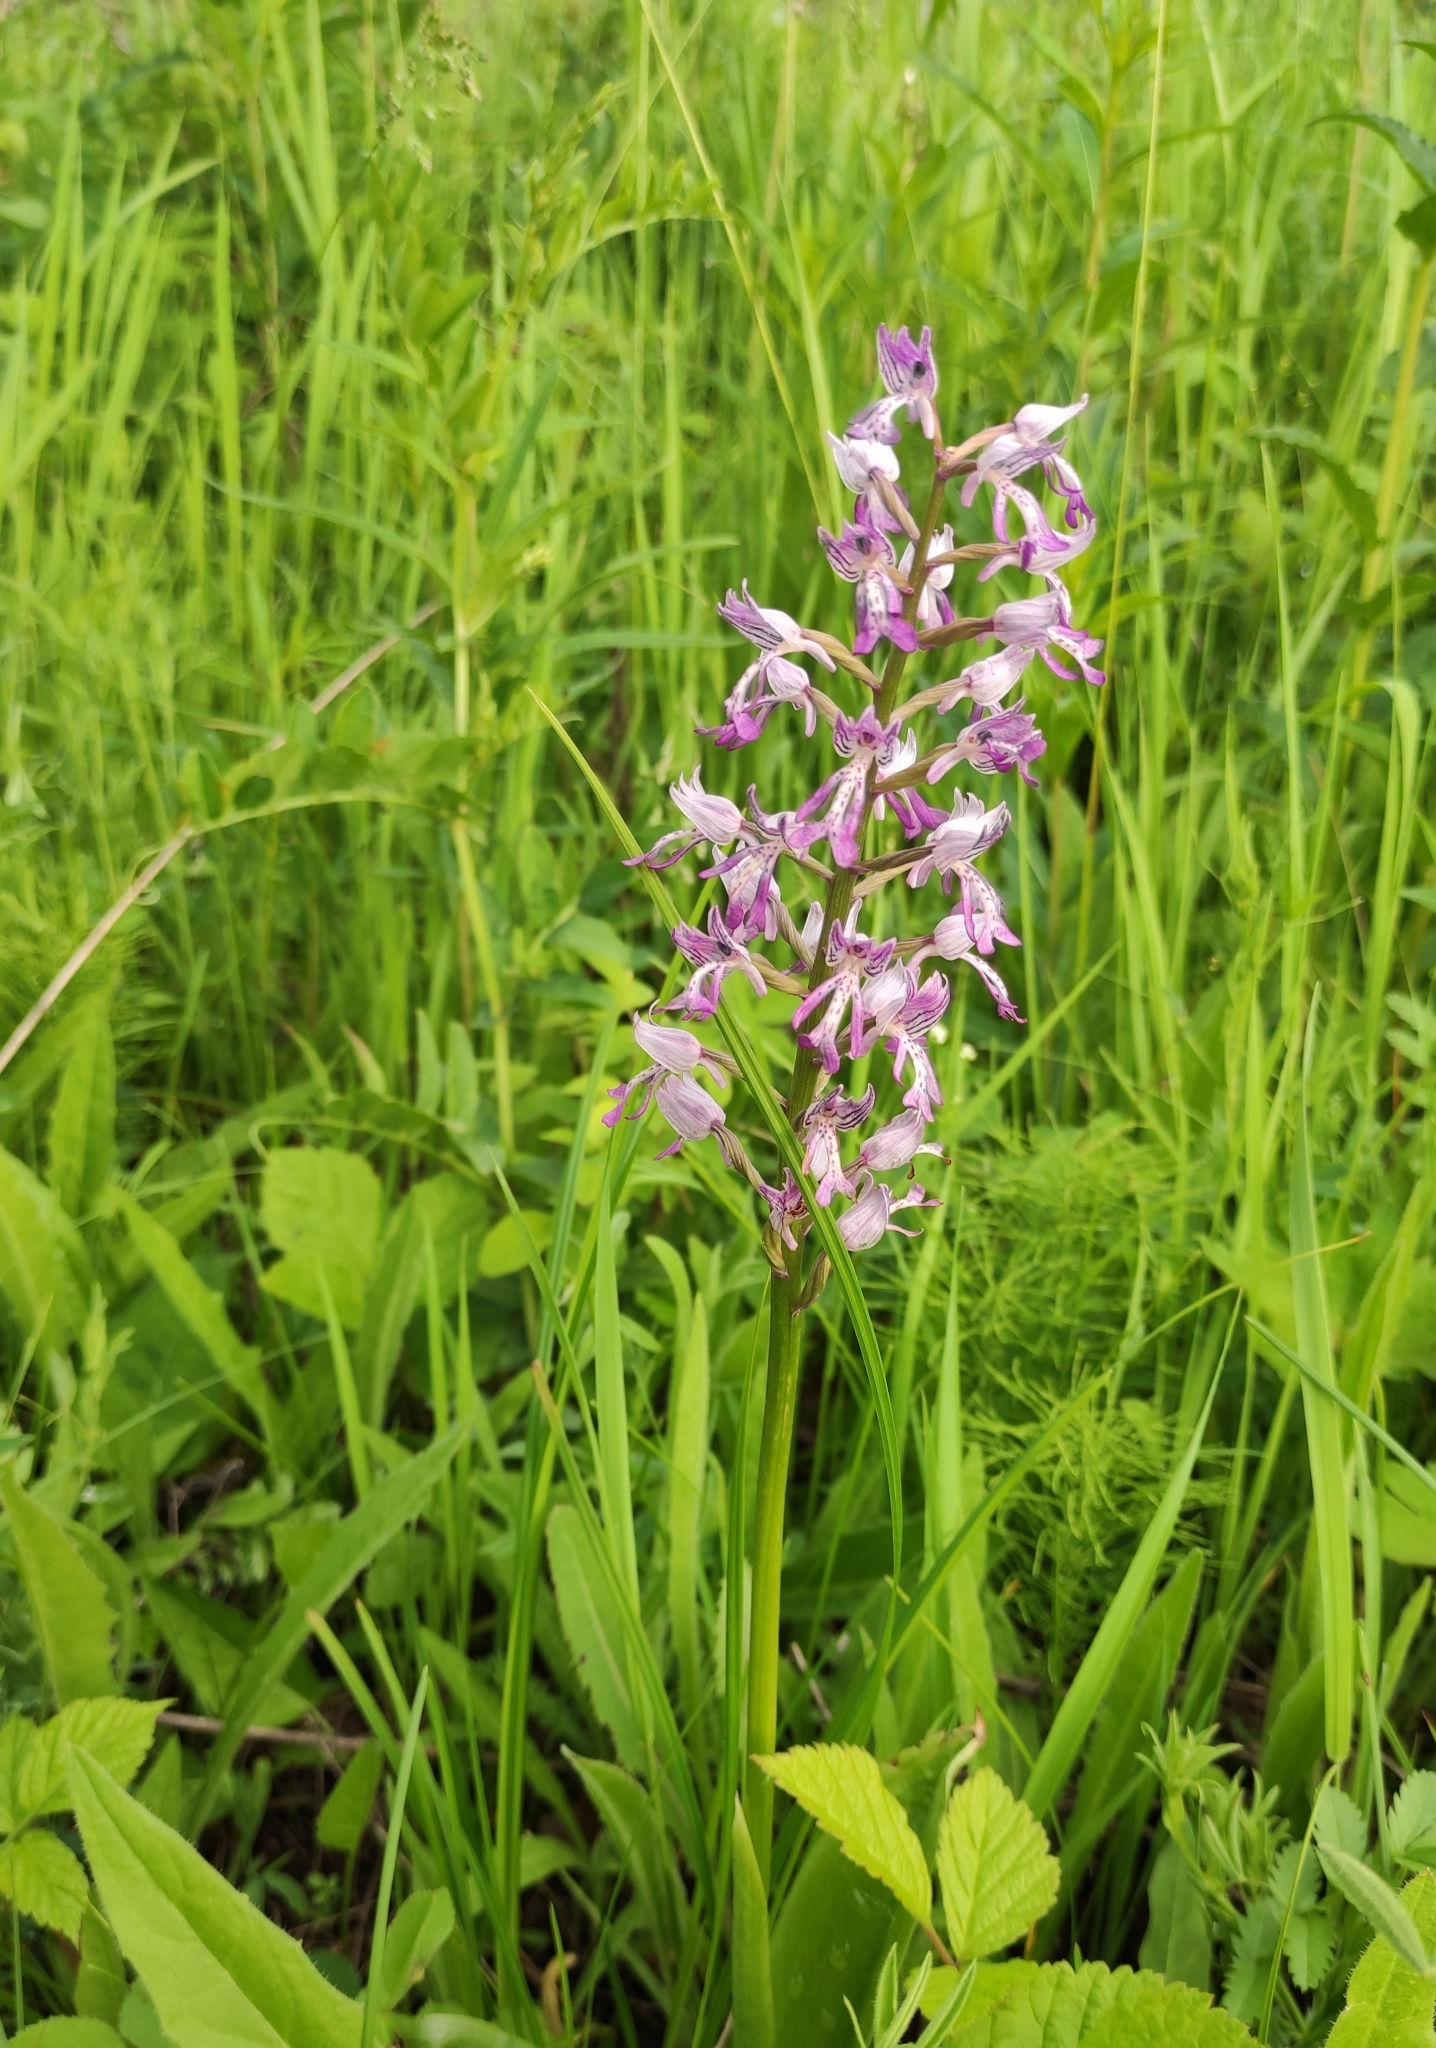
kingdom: Plantae
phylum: Tracheophyta
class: Liliopsida
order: Asparagales
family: Orchidaceae
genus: Orchis
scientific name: Orchis militaris
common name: Military orchid
